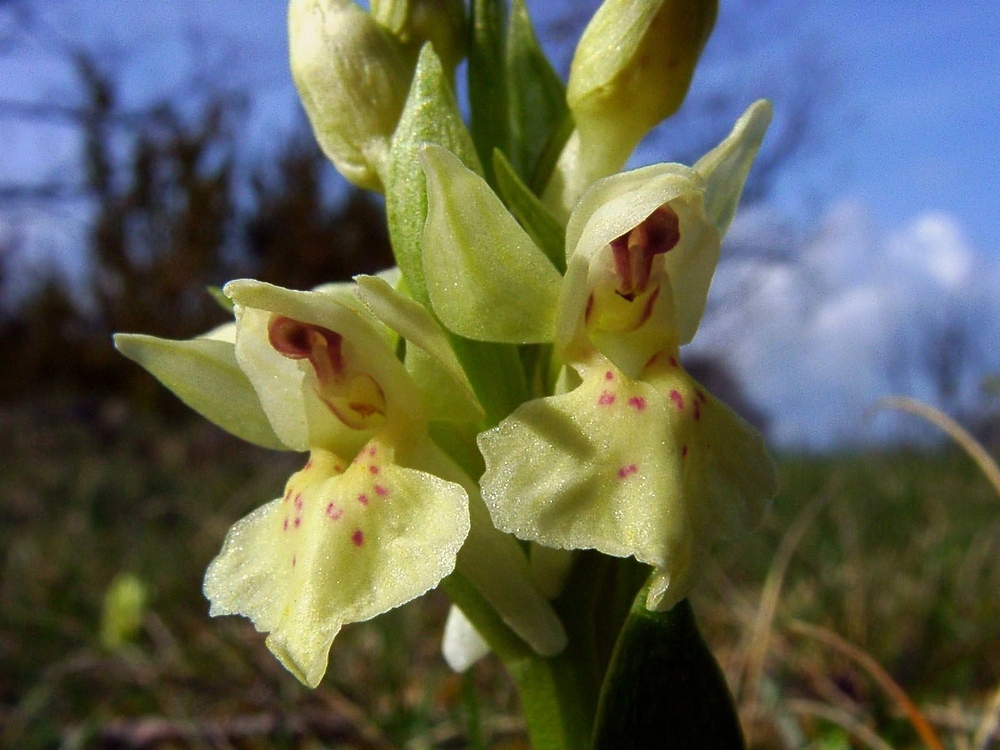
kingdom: Plantae
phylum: Tracheophyta
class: Liliopsida
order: Asparagales
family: Orchidaceae
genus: Dactylorhiza
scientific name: Dactylorhiza sambucina
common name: Elder-flowered orchid
